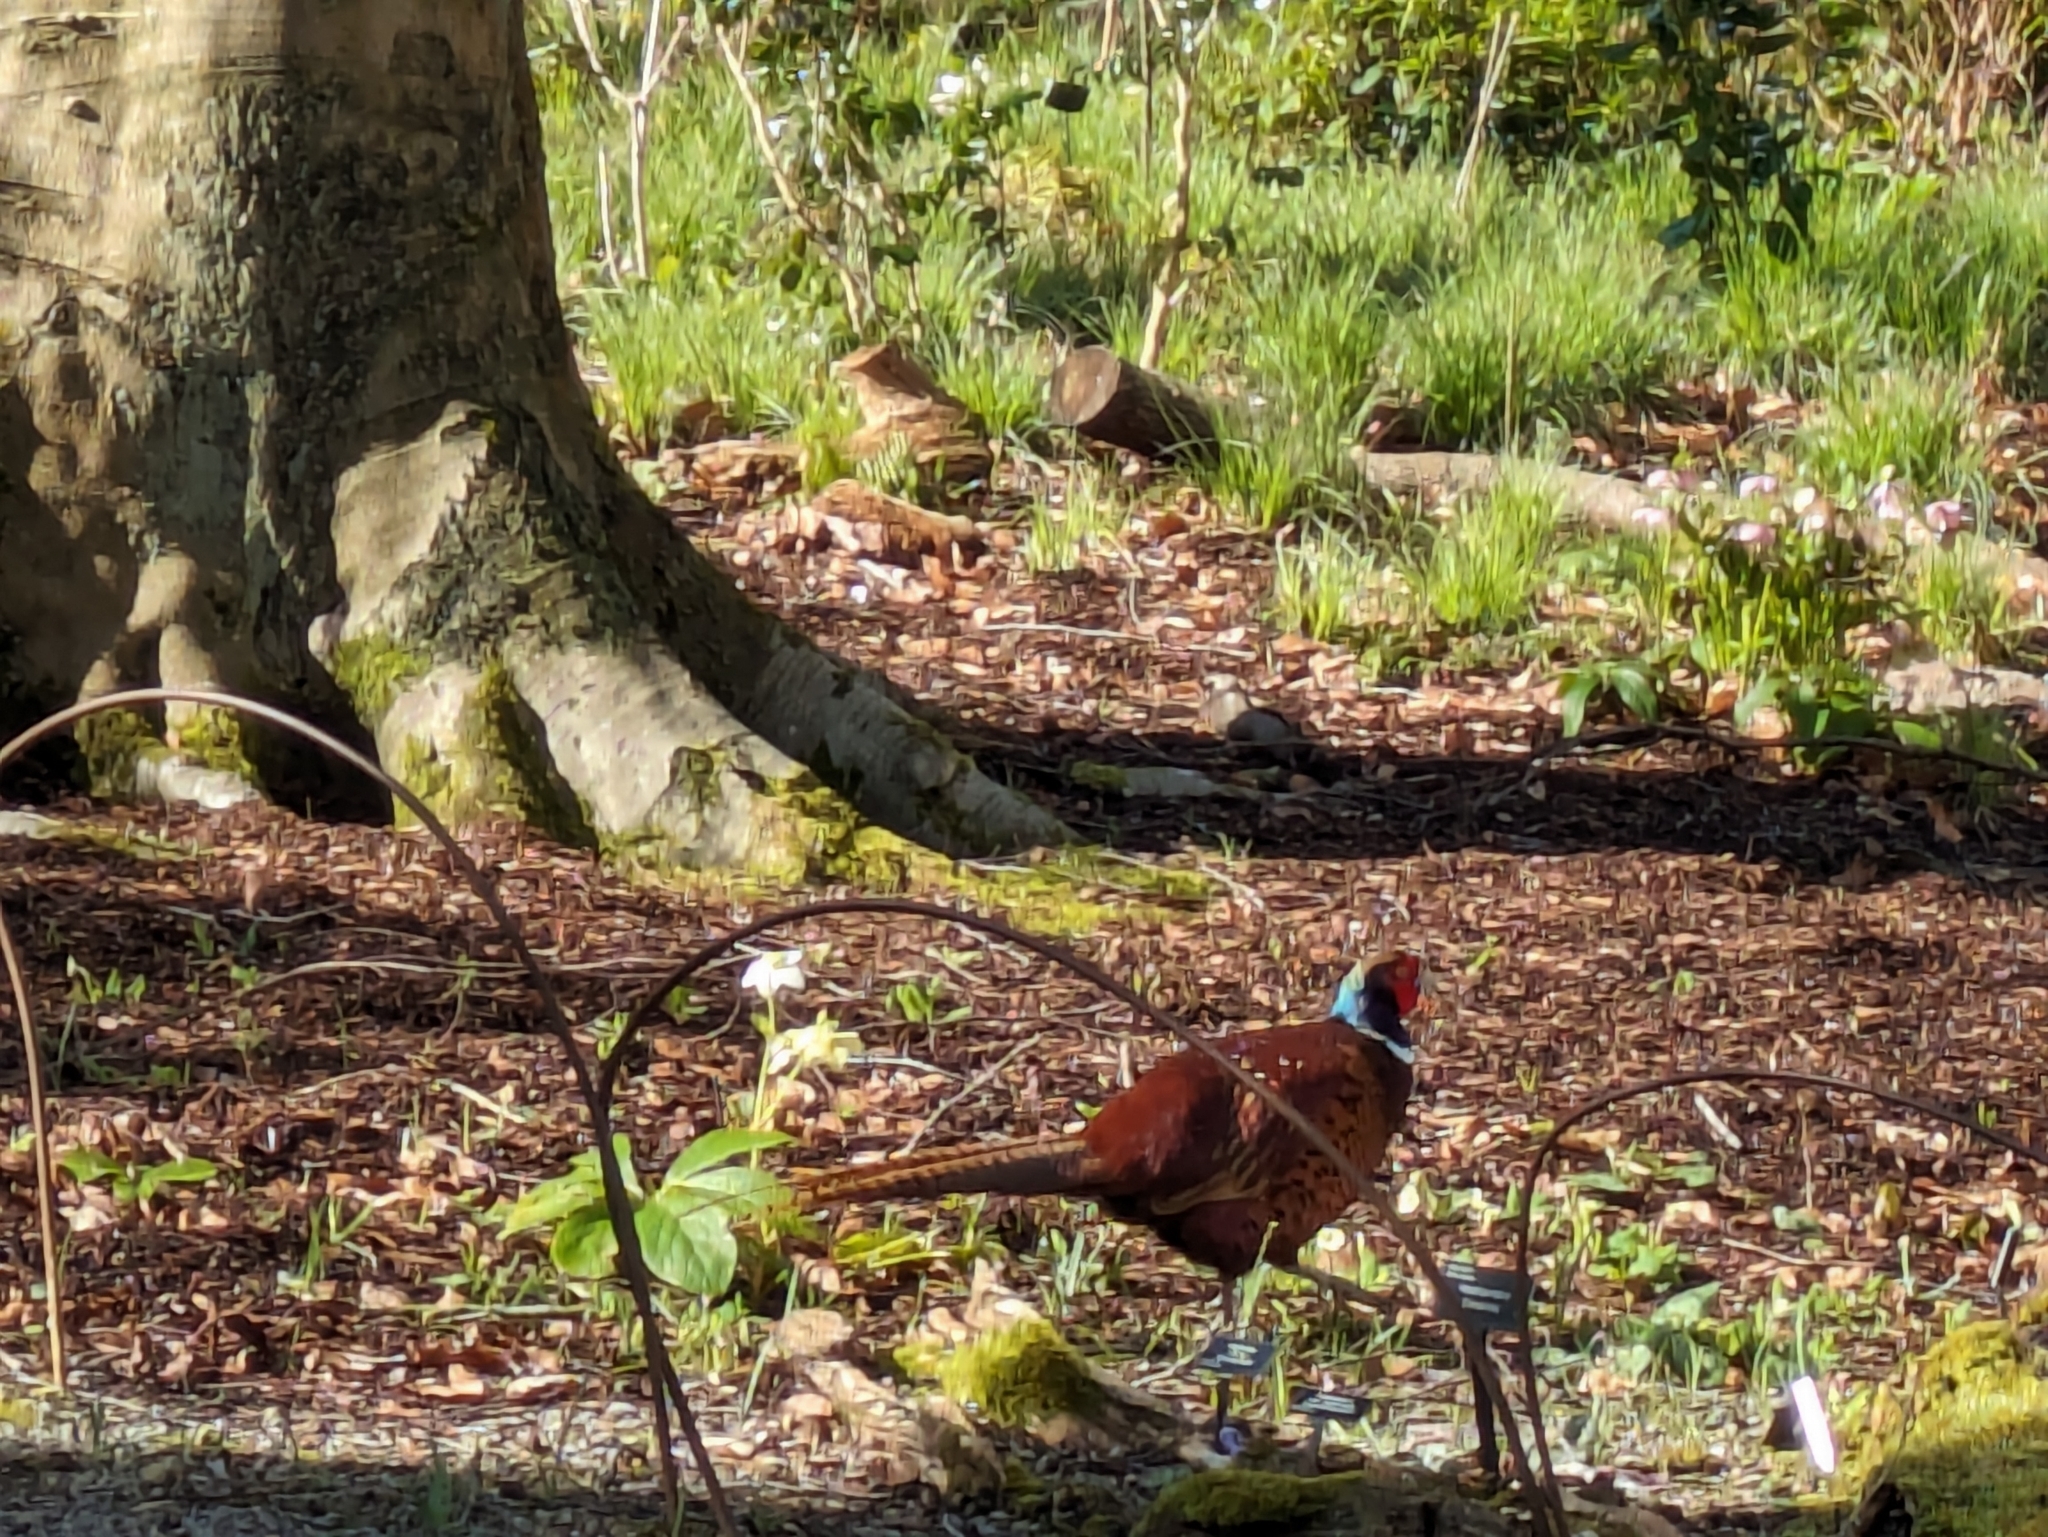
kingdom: Animalia
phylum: Chordata
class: Aves
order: Galliformes
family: Phasianidae
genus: Phasianus
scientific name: Phasianus colchicus
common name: Common pheasant
